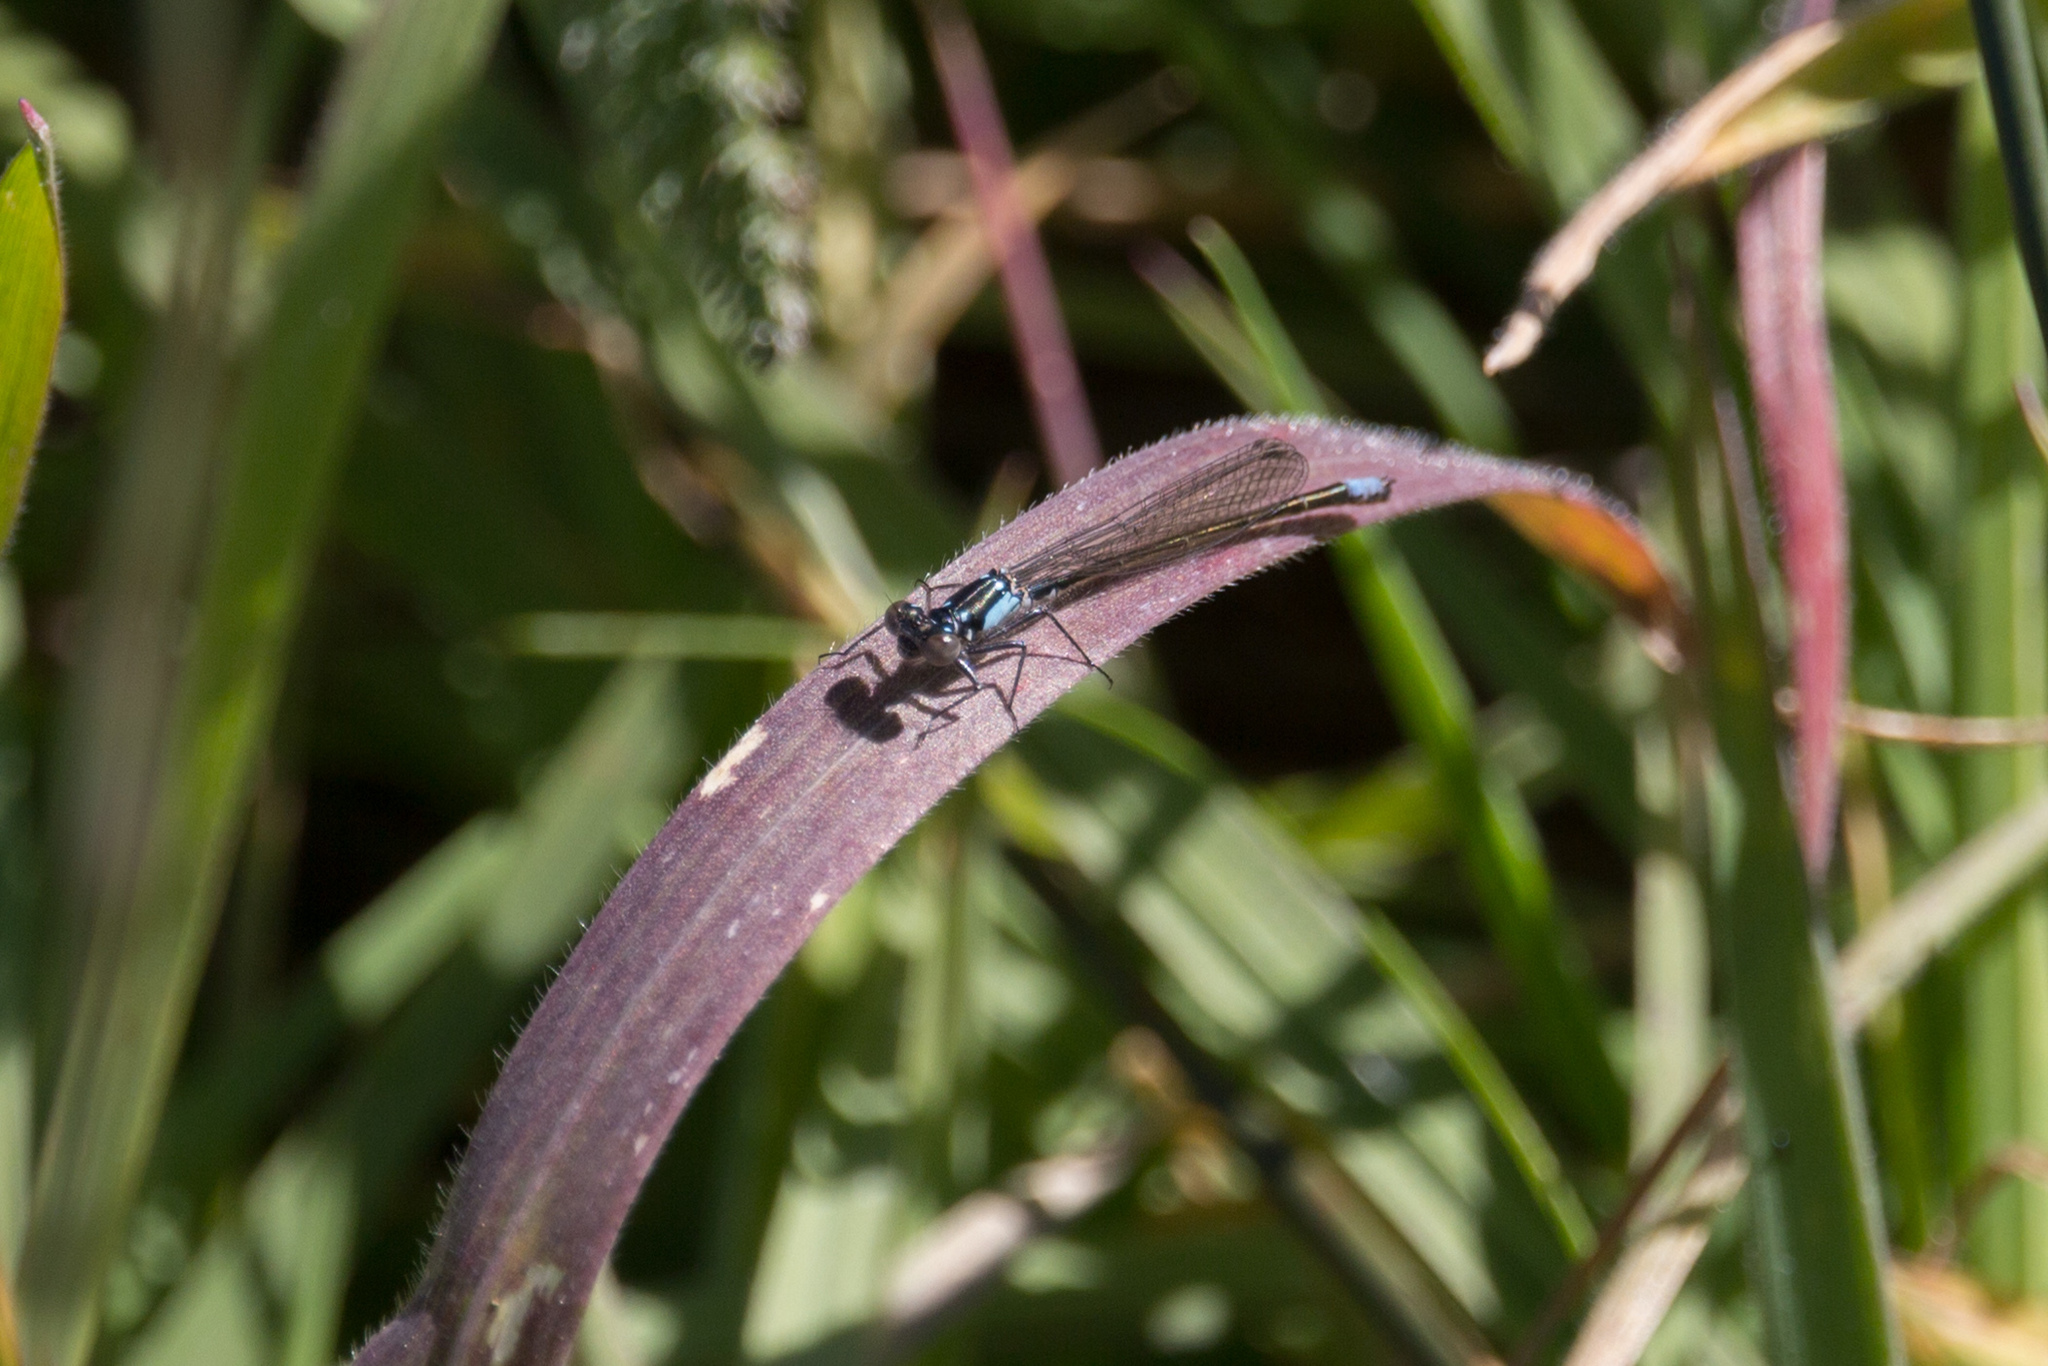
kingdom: Animalia
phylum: Arthropoda
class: Insecta
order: Odonata
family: Coenagrionidae
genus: Ischnura
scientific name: Ischnura cervula
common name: Pacific forktail
